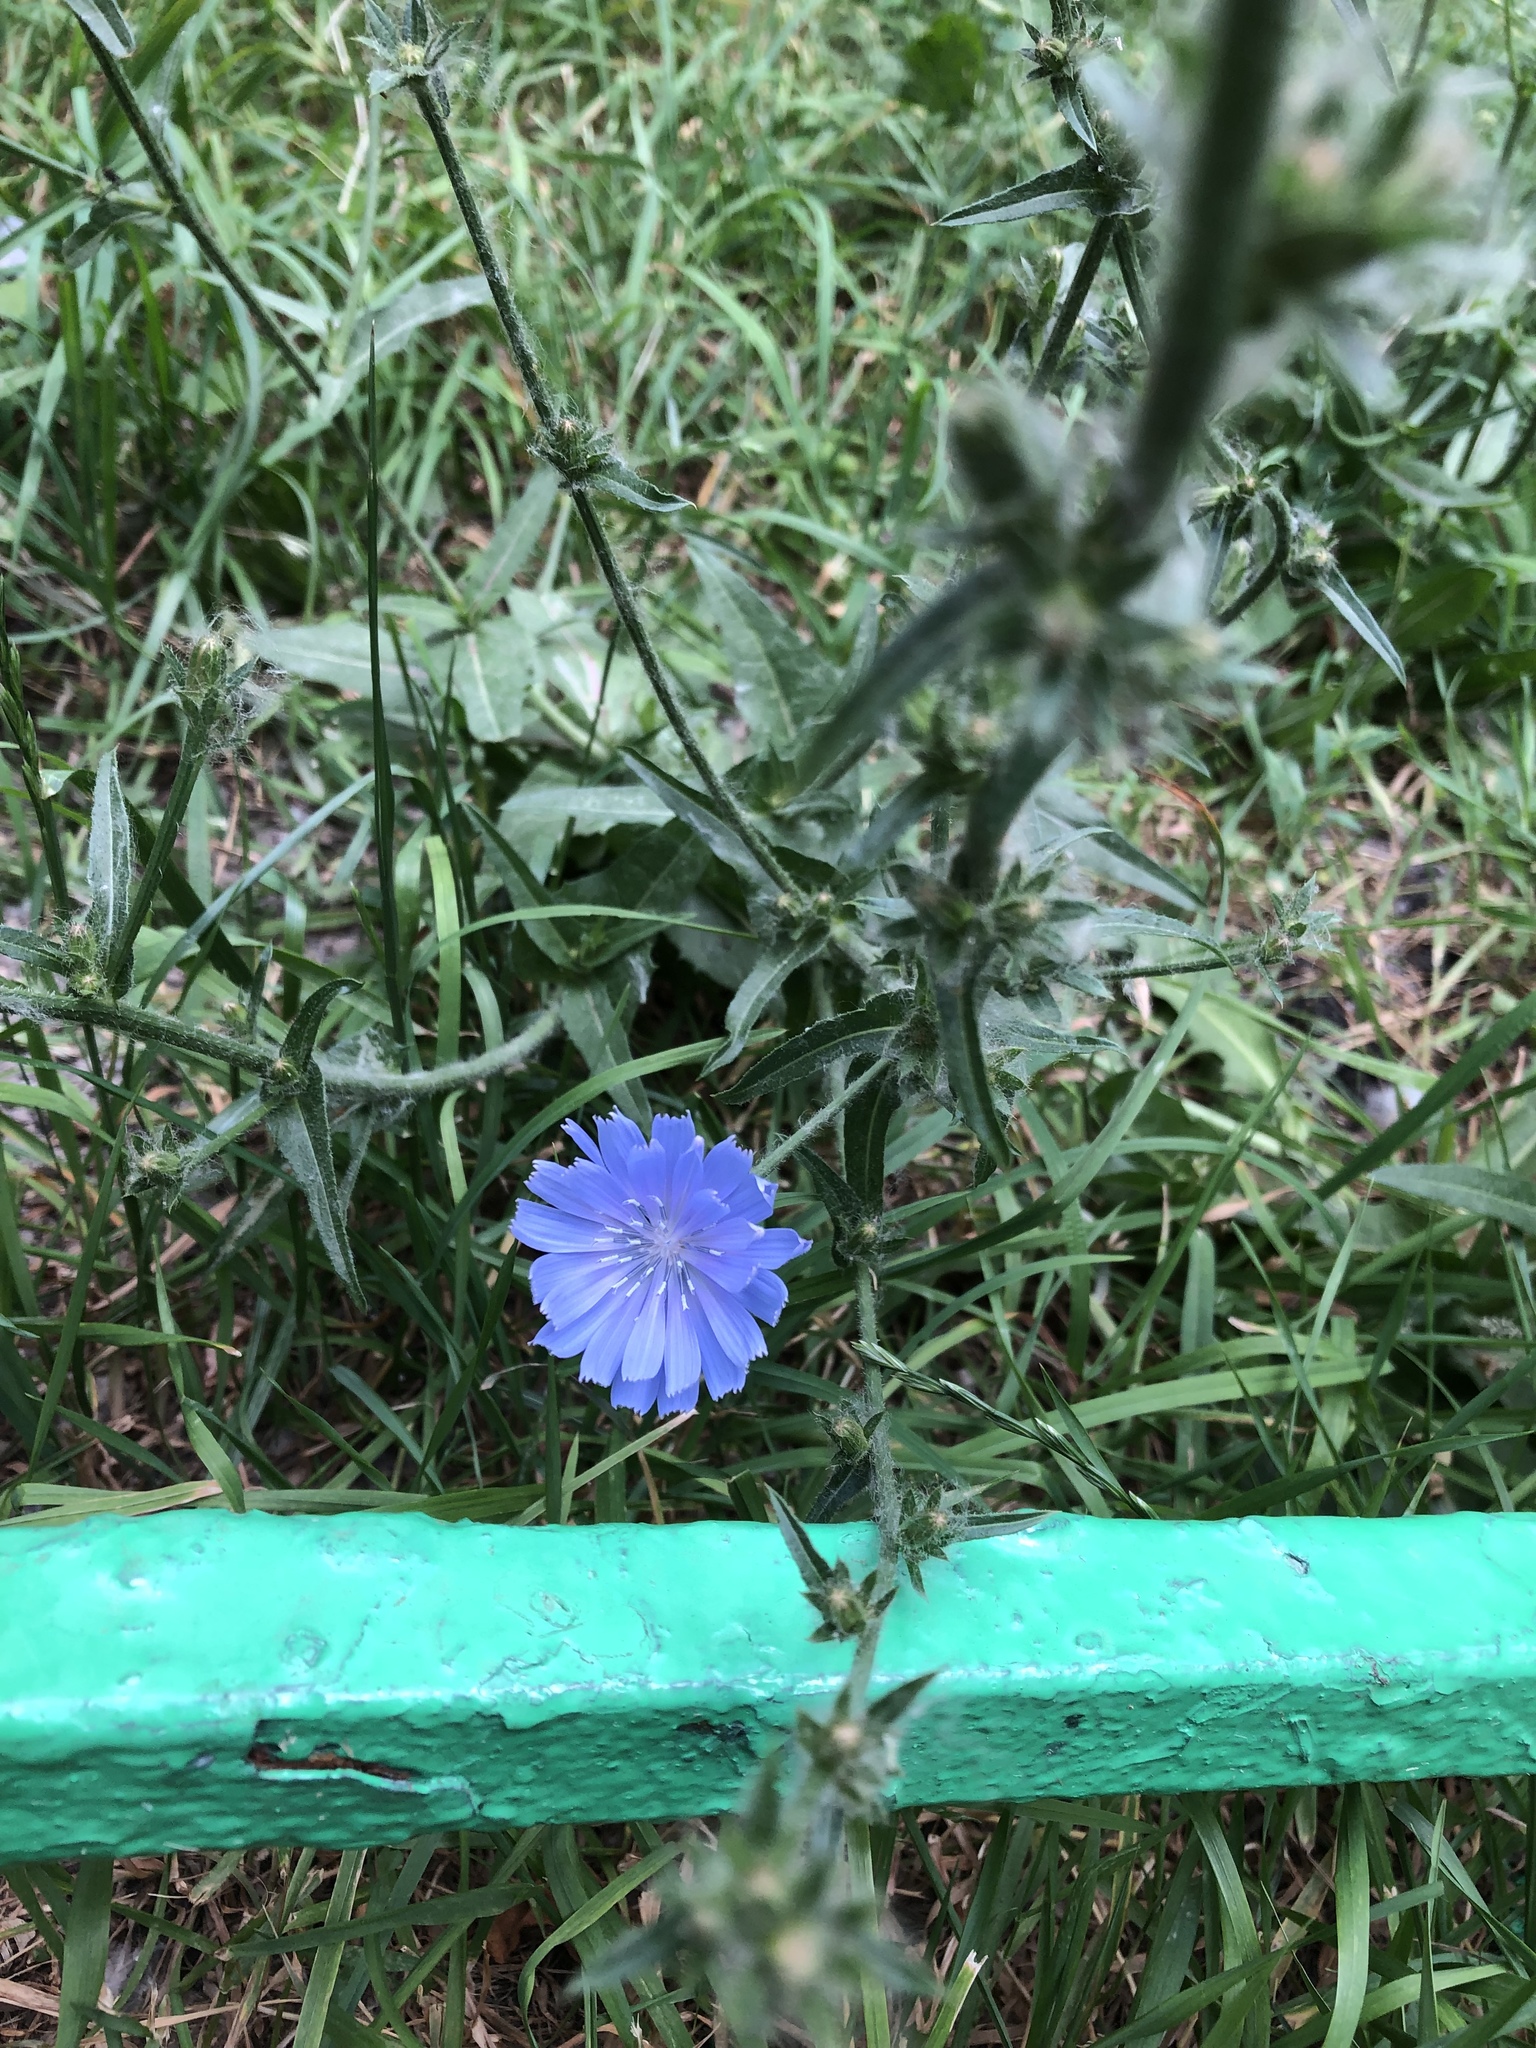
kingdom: Plantae
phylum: Tracheophyta
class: Magnoliopsida
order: Asterales
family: Asteraceae
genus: Cichorium
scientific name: Cichorium intybus
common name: Chicory
